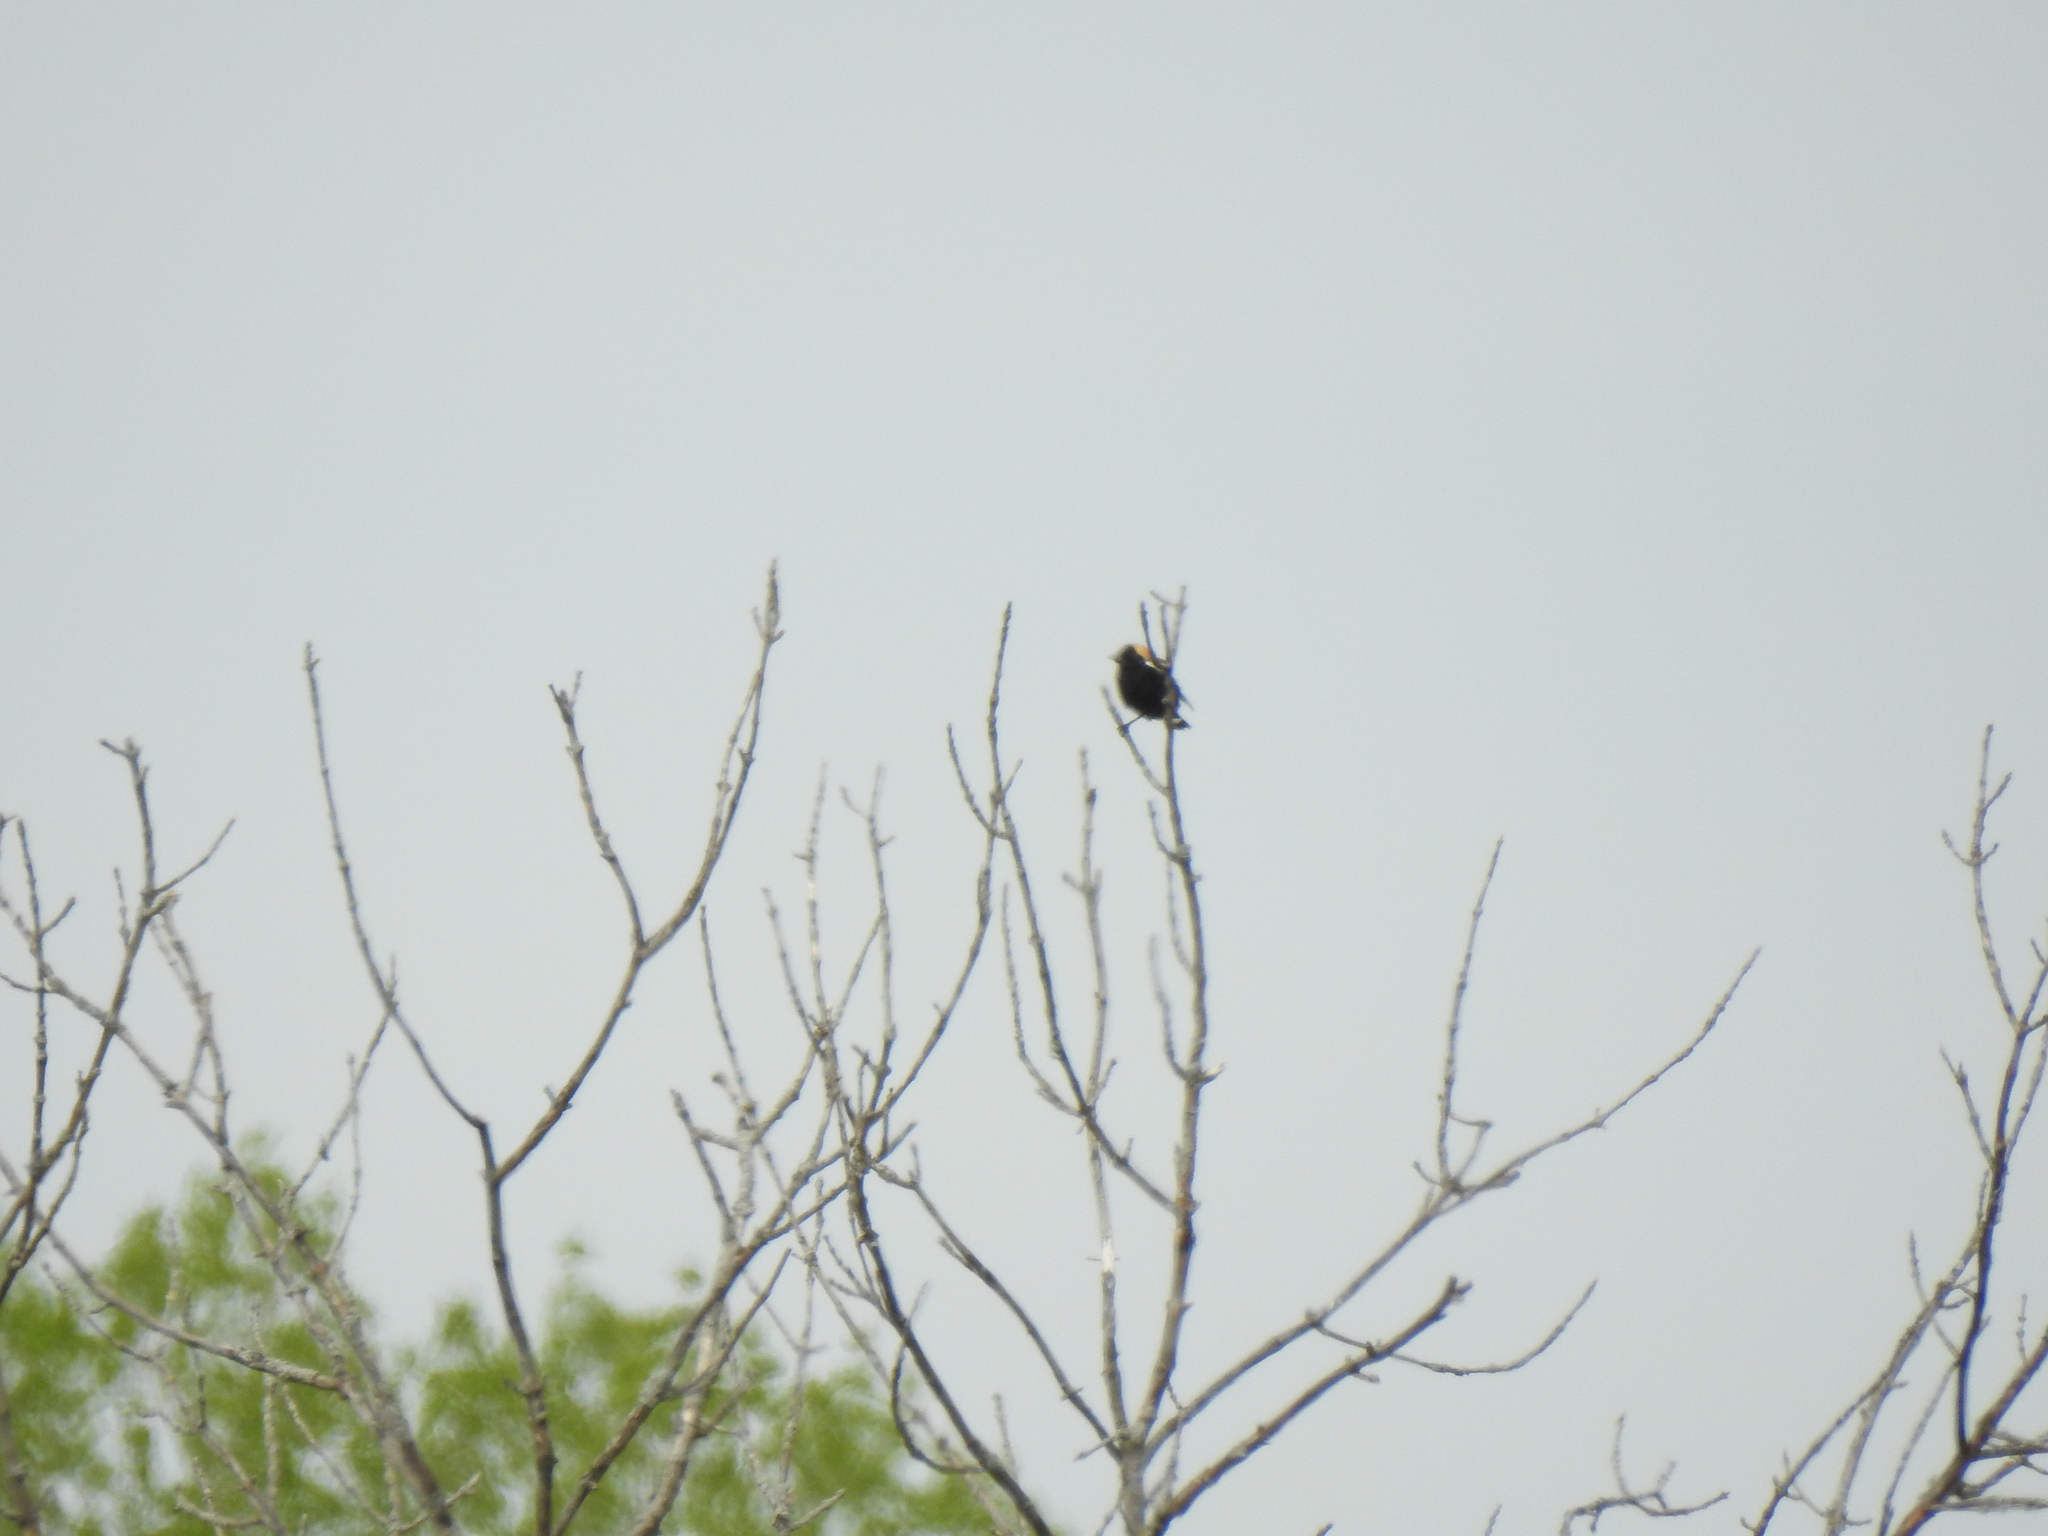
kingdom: Animalia
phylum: Chordata
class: Aves
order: Passeriformes
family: Icteridae
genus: Dolichonyx
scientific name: Dolichonyx oryzivorus
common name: Bobolink
